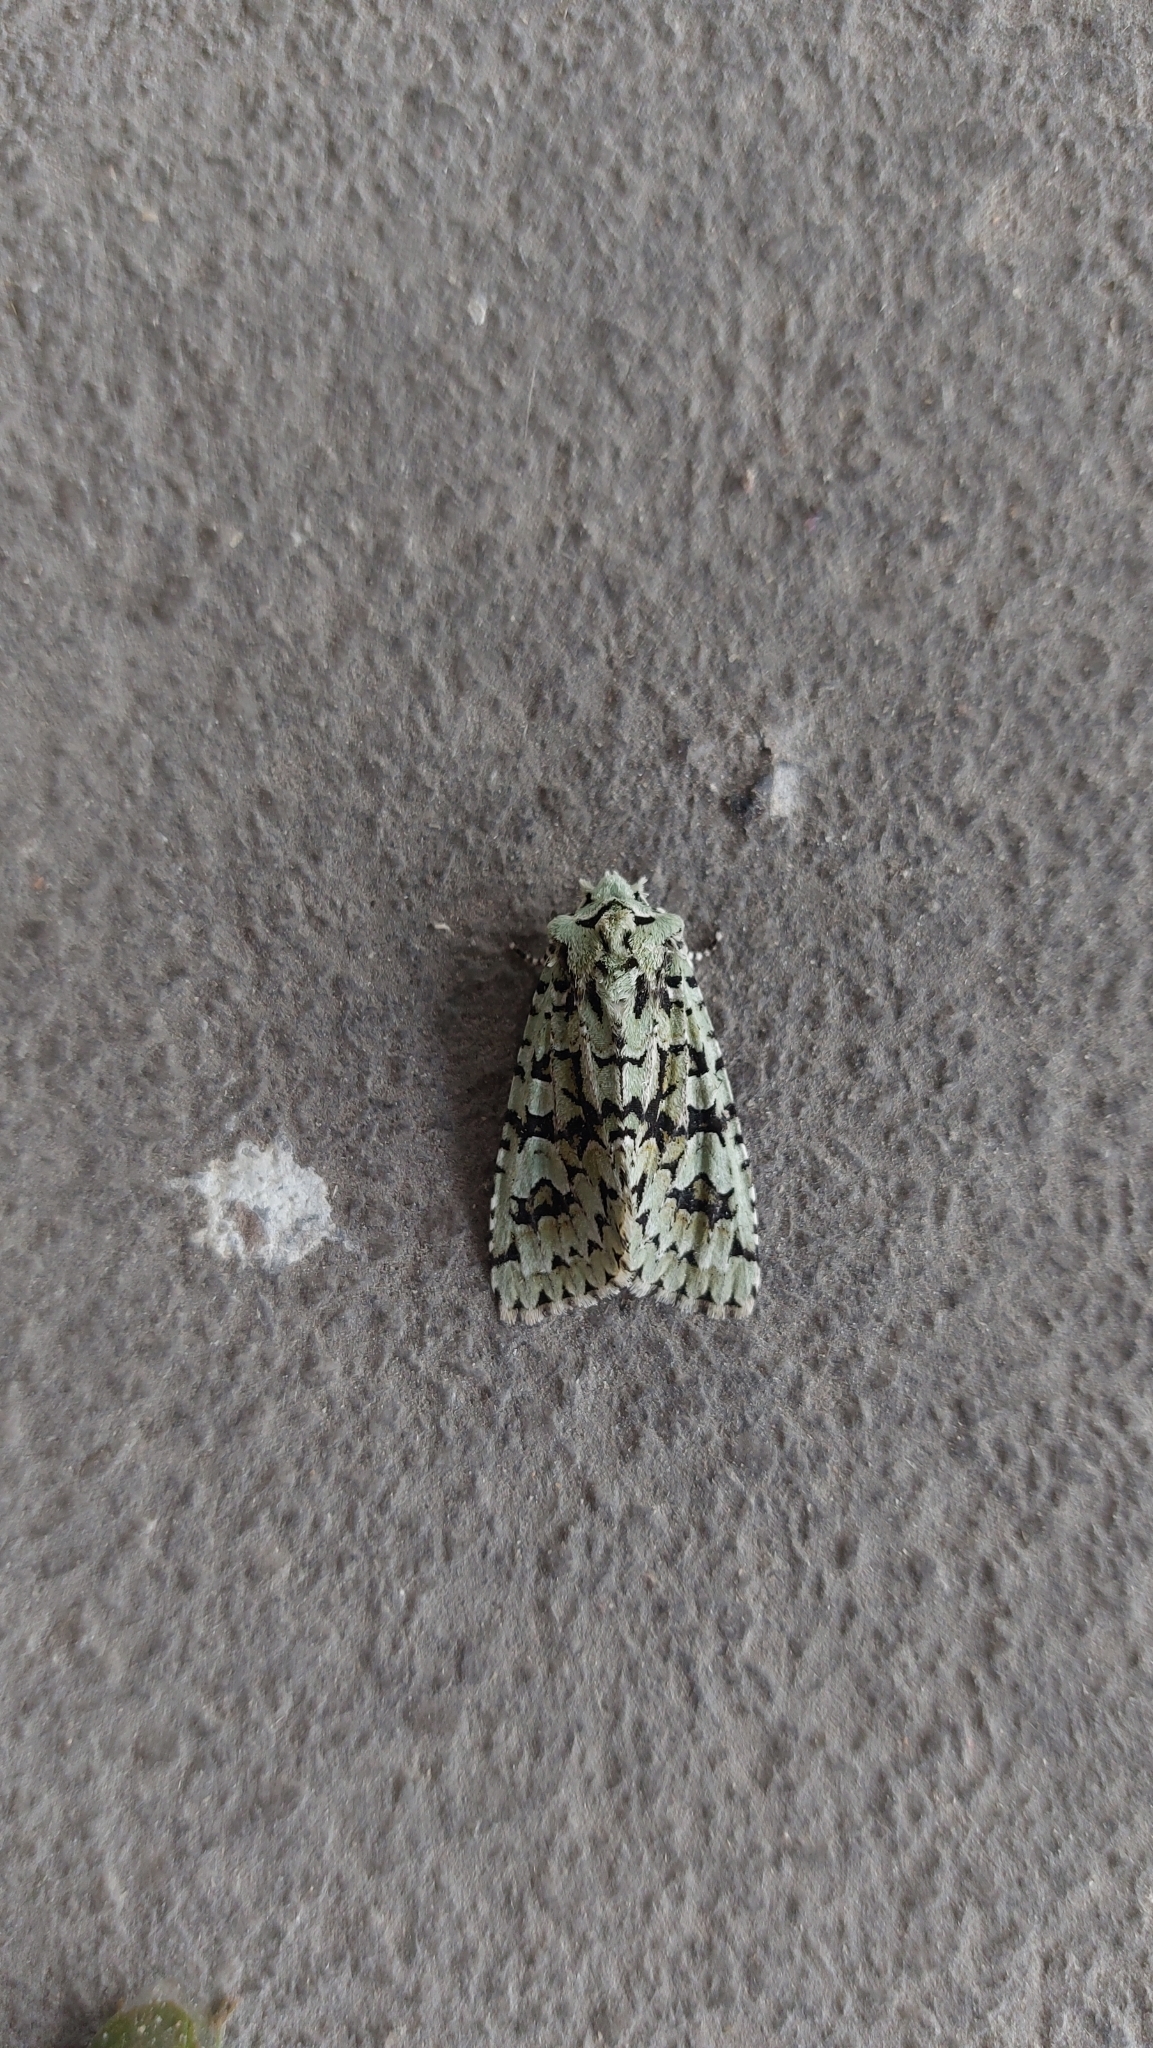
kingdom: Animalia
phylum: Arthropoda
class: Insecta
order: Lepidoptera
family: Noctuidae
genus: Griposia
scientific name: Griposia aprilina
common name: Merveille du jour
